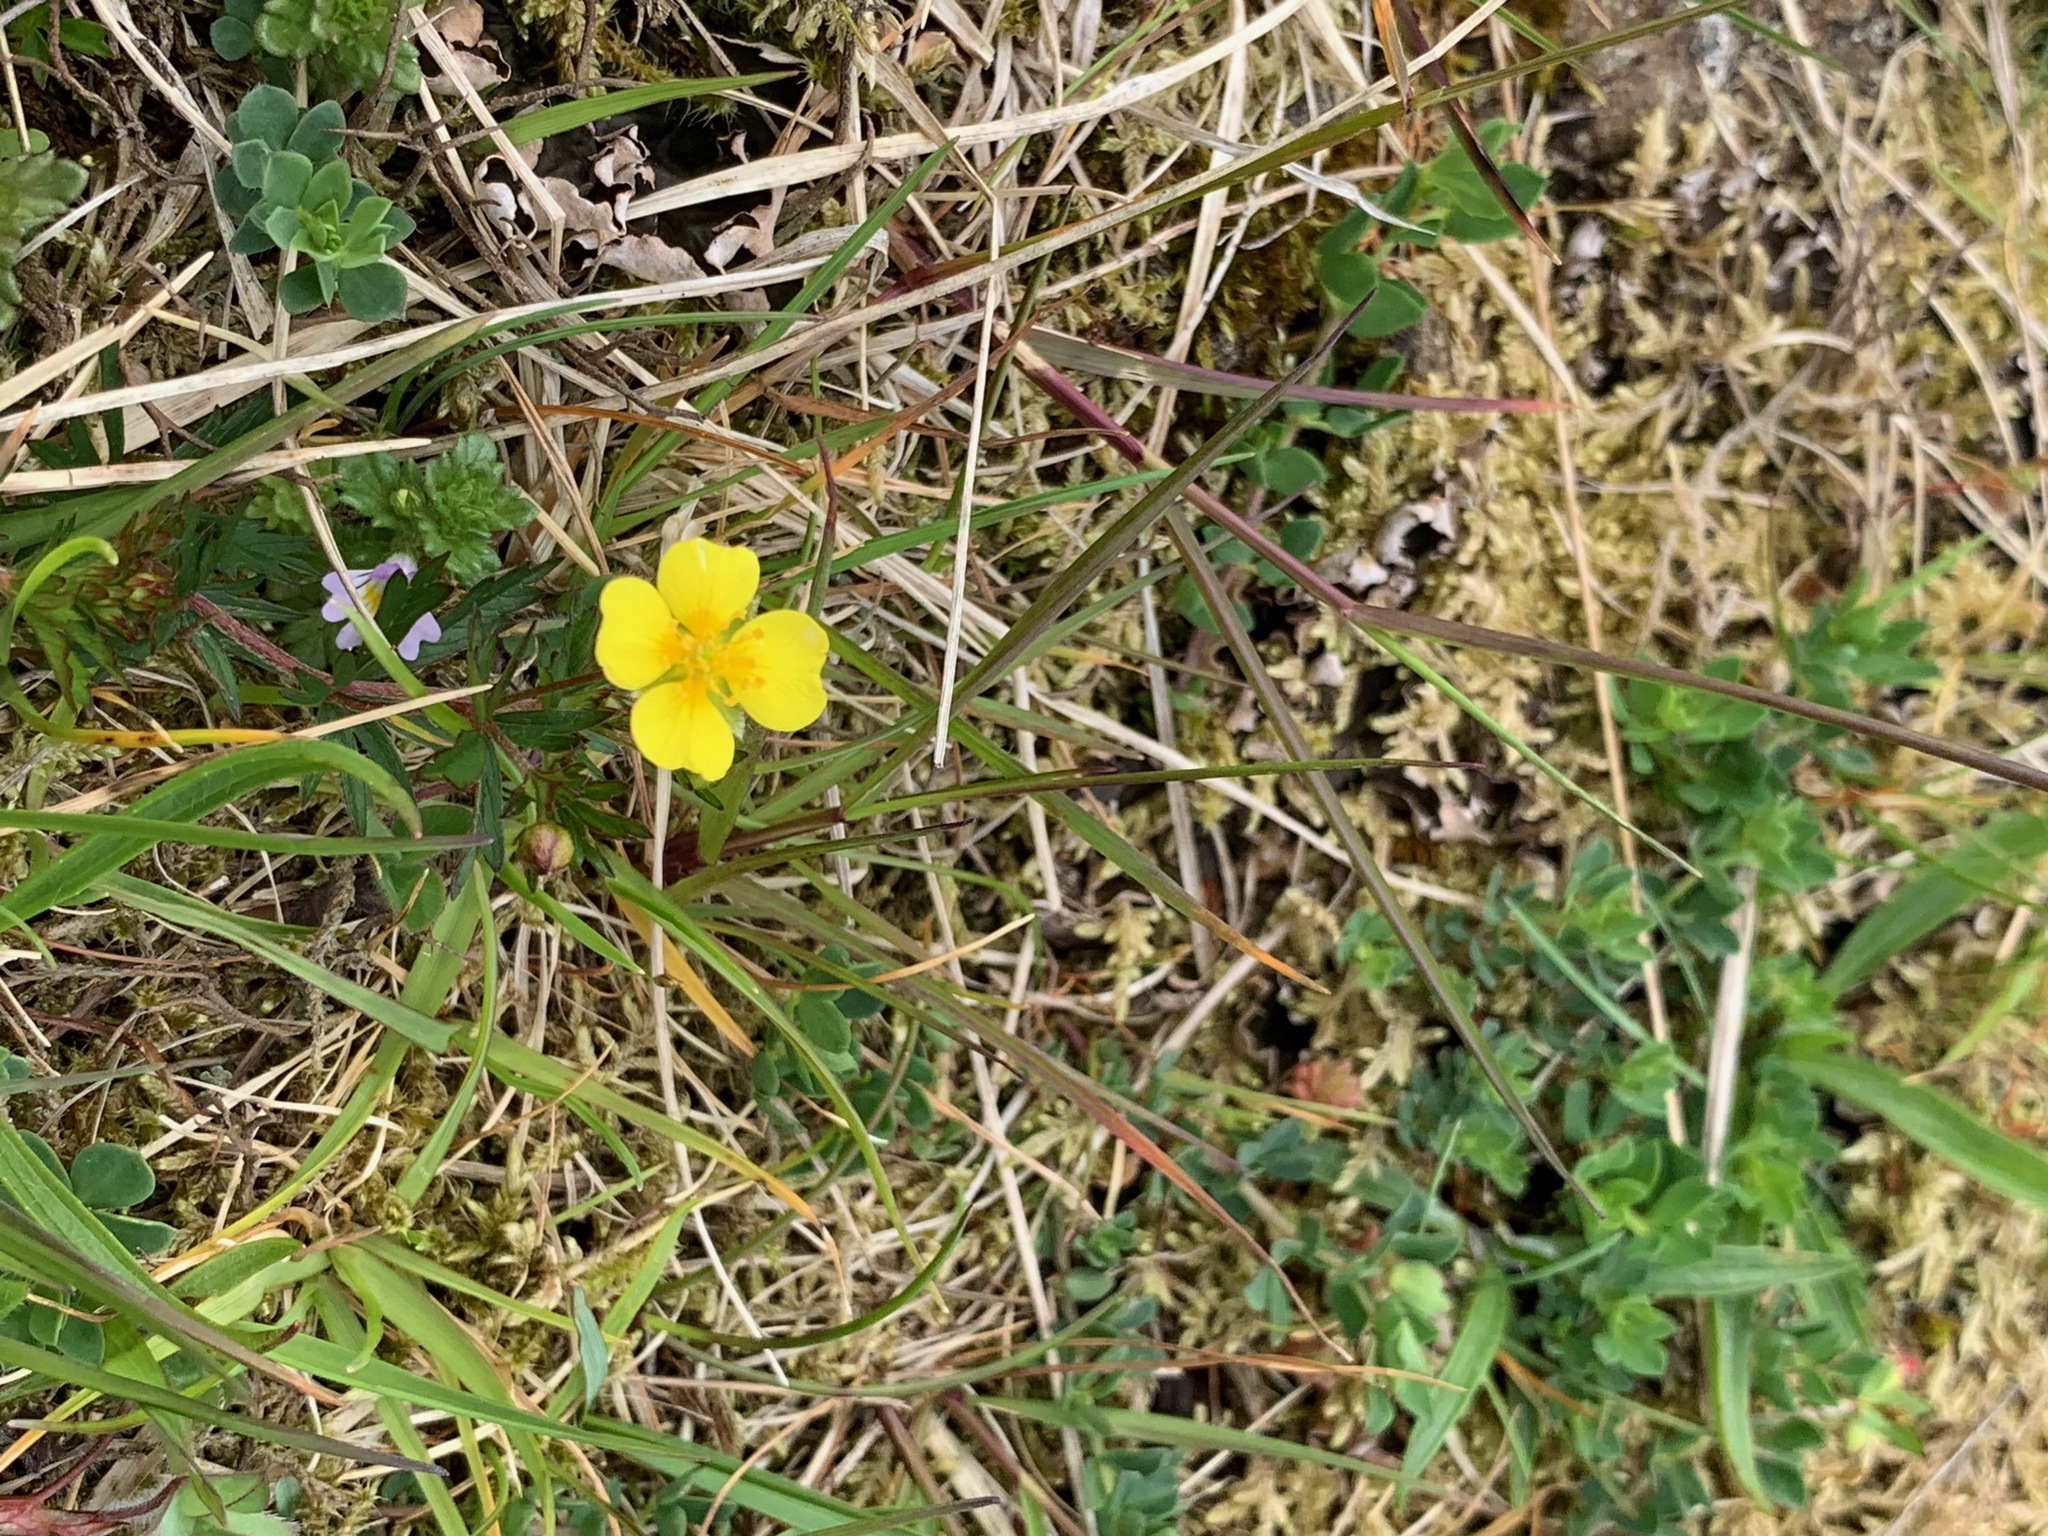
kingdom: Plantae
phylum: Tracheophyta
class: Magnoliopsida
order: Rosales
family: Rosaceae
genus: Potentilla
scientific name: Potentilla erecta
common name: Tormentil
